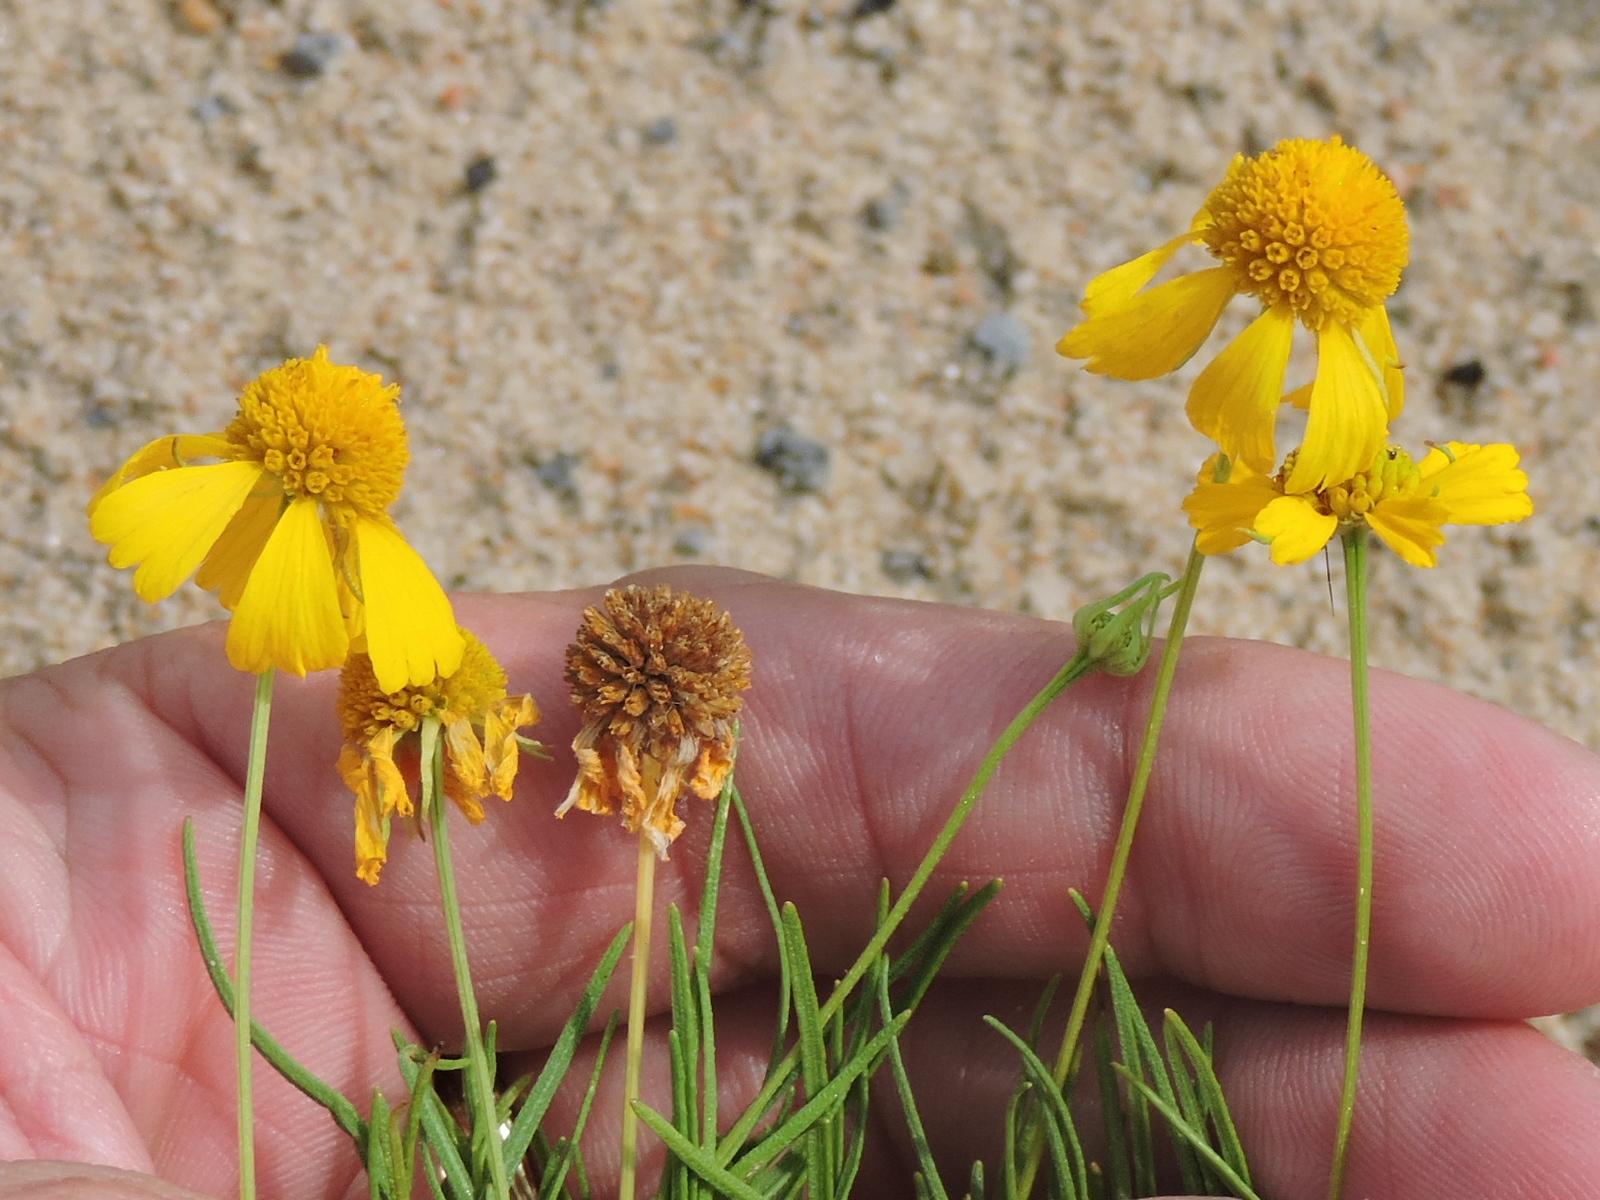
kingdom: Plantae
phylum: Tracheophyta
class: Magnoliopsida
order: Asterales
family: Asteraceae
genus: Helenium
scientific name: Helenium amarum
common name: Bitter sneezeweed
